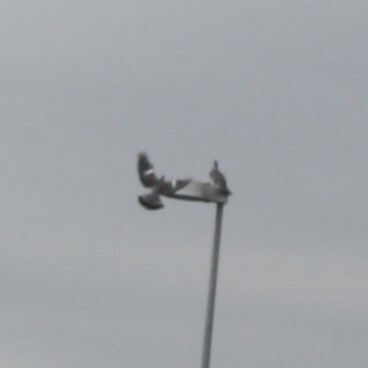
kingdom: Animalia
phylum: Chordata
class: Aves
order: Columbiformes
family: Columbidae
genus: Columba
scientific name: Columba palumbus
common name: Common wood pigeon
